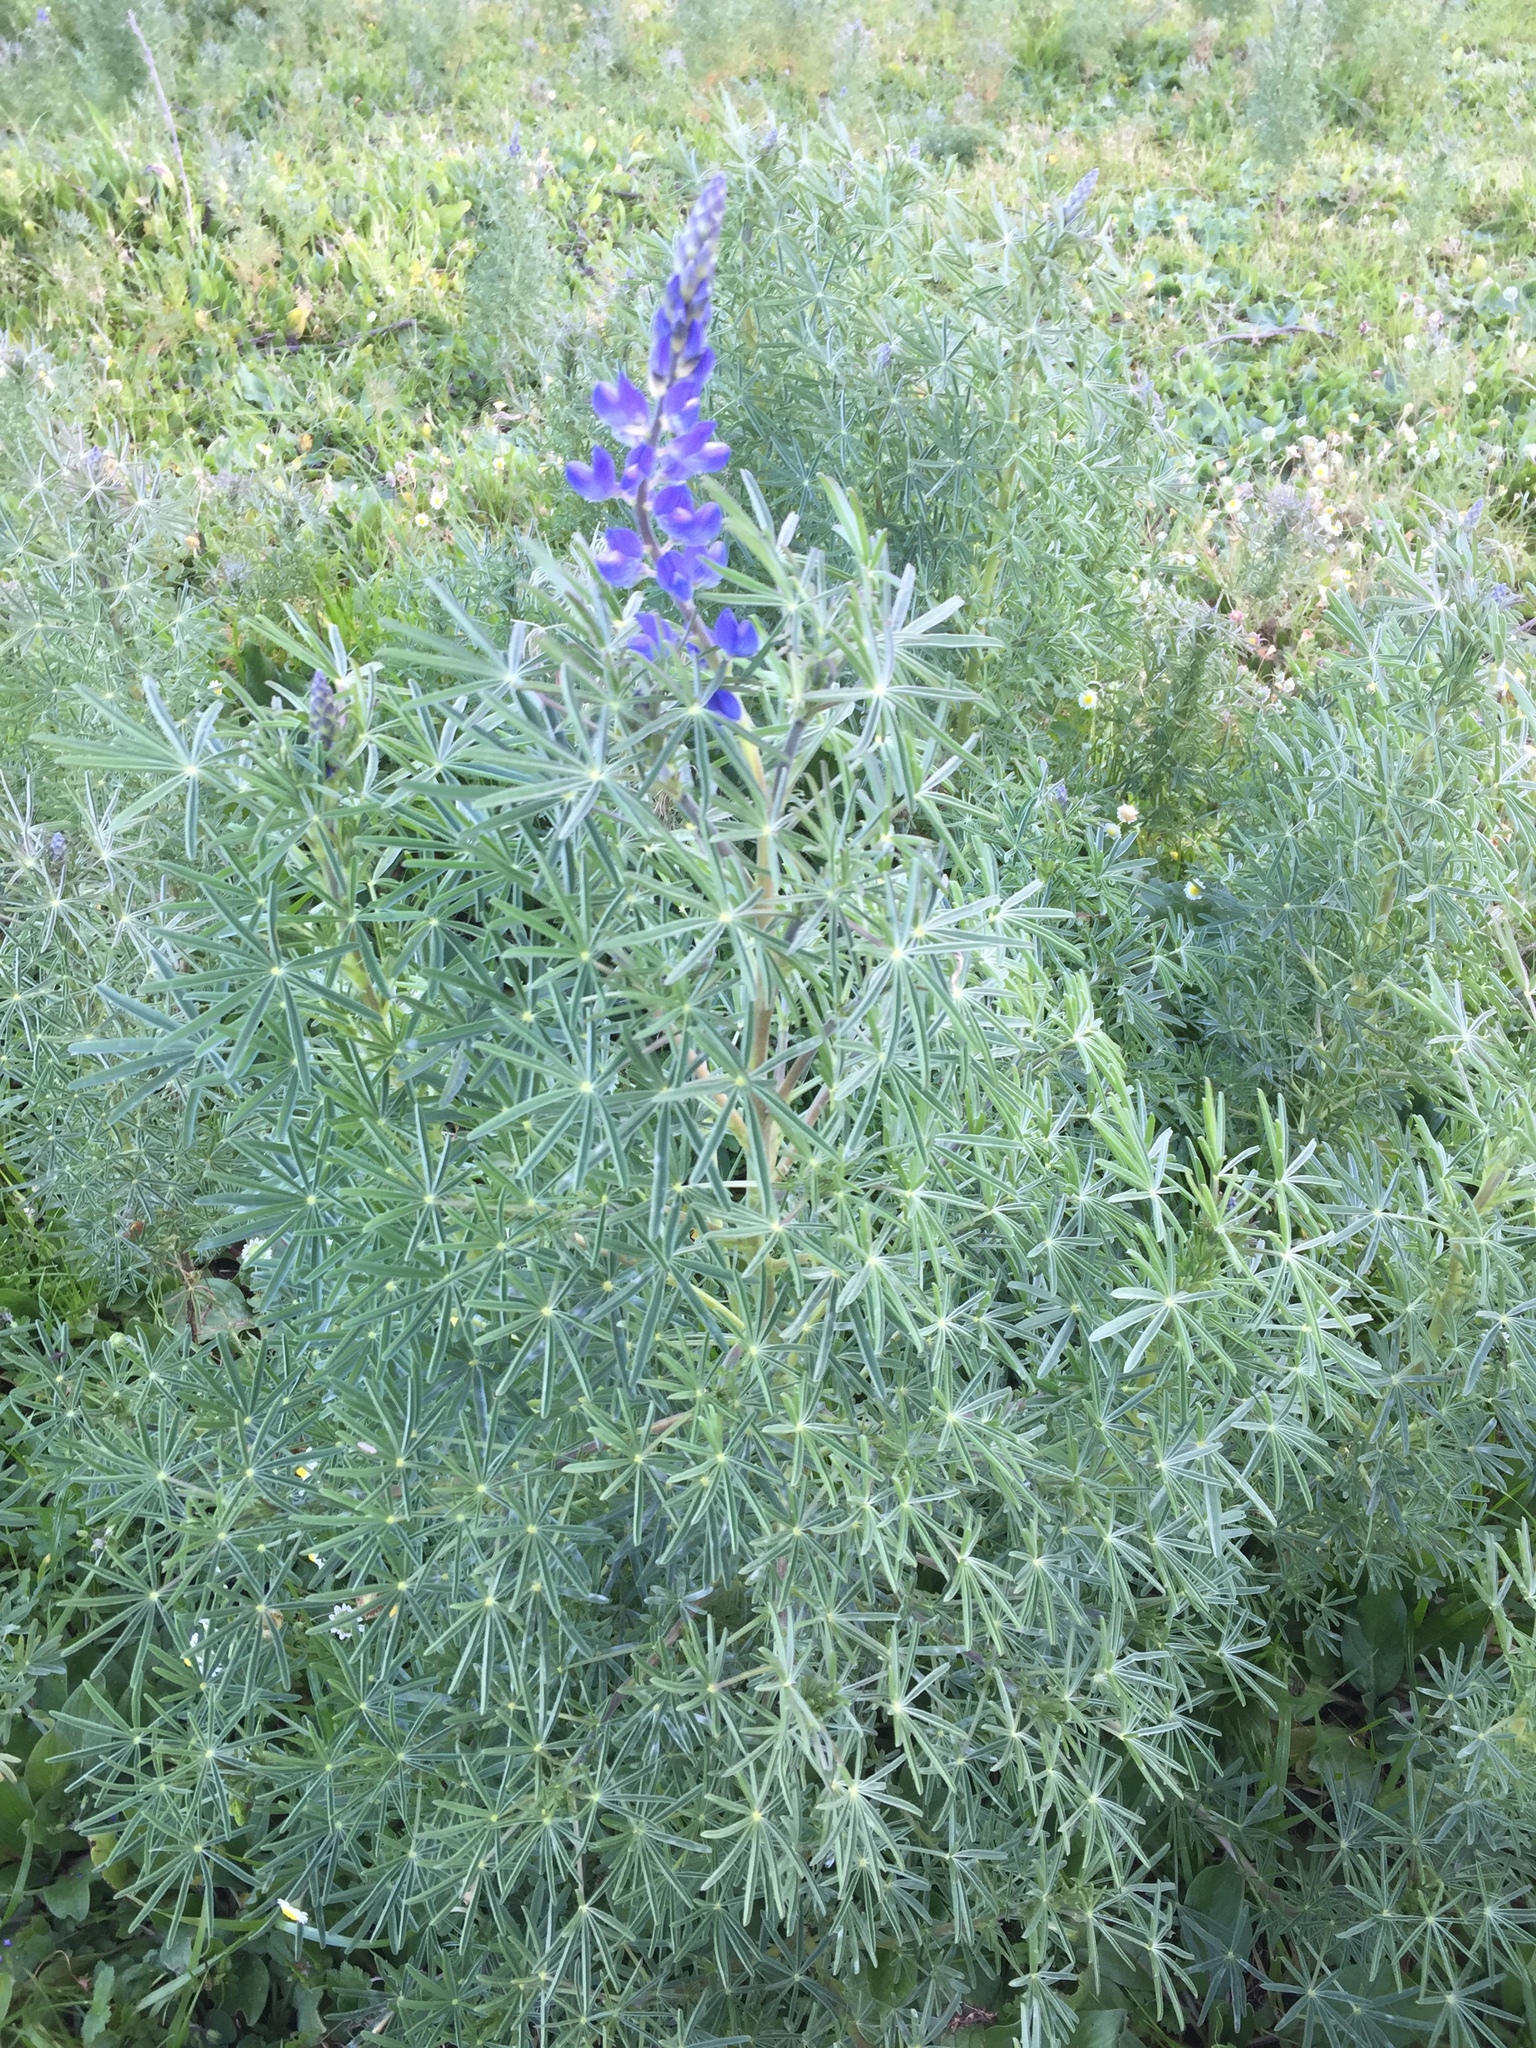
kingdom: Plantae
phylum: Tracheophyta
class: Magnoliopsida
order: Fabales
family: Fabaceae
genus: Lupinus
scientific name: Lupinus angustifolius
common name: Narrow-leaved lupin
